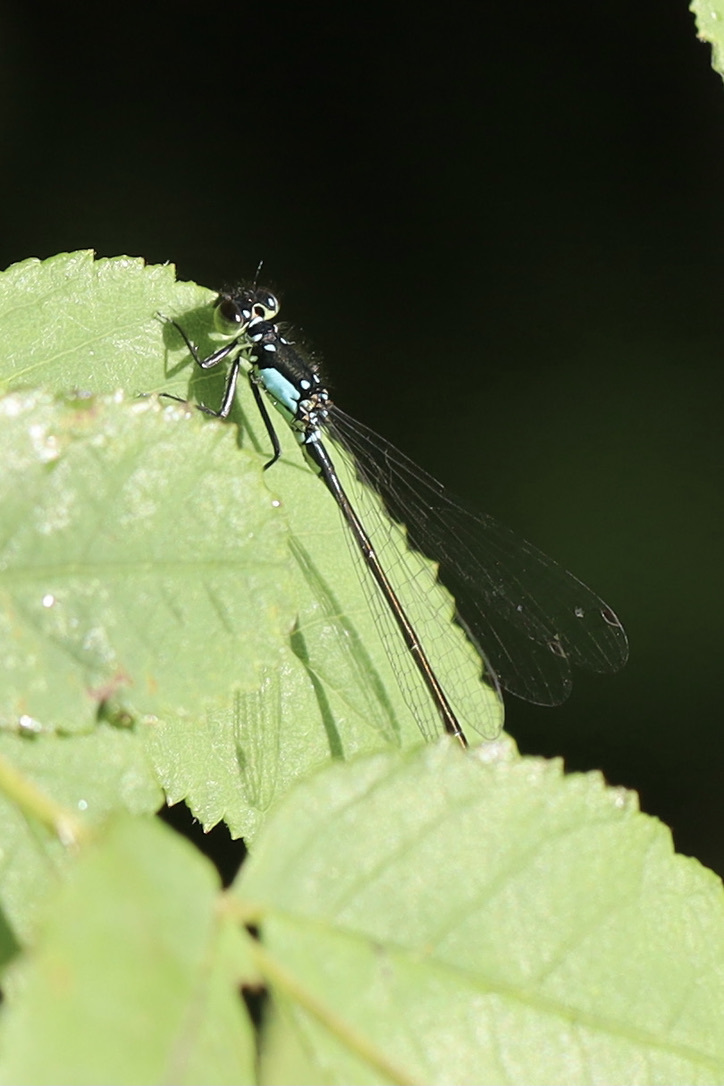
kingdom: Animalia
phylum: Arthropoda
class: Insecta
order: Odonata
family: Coenagrionidae
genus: Ischnura
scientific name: Ischnura cervula
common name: Pacific forktail
